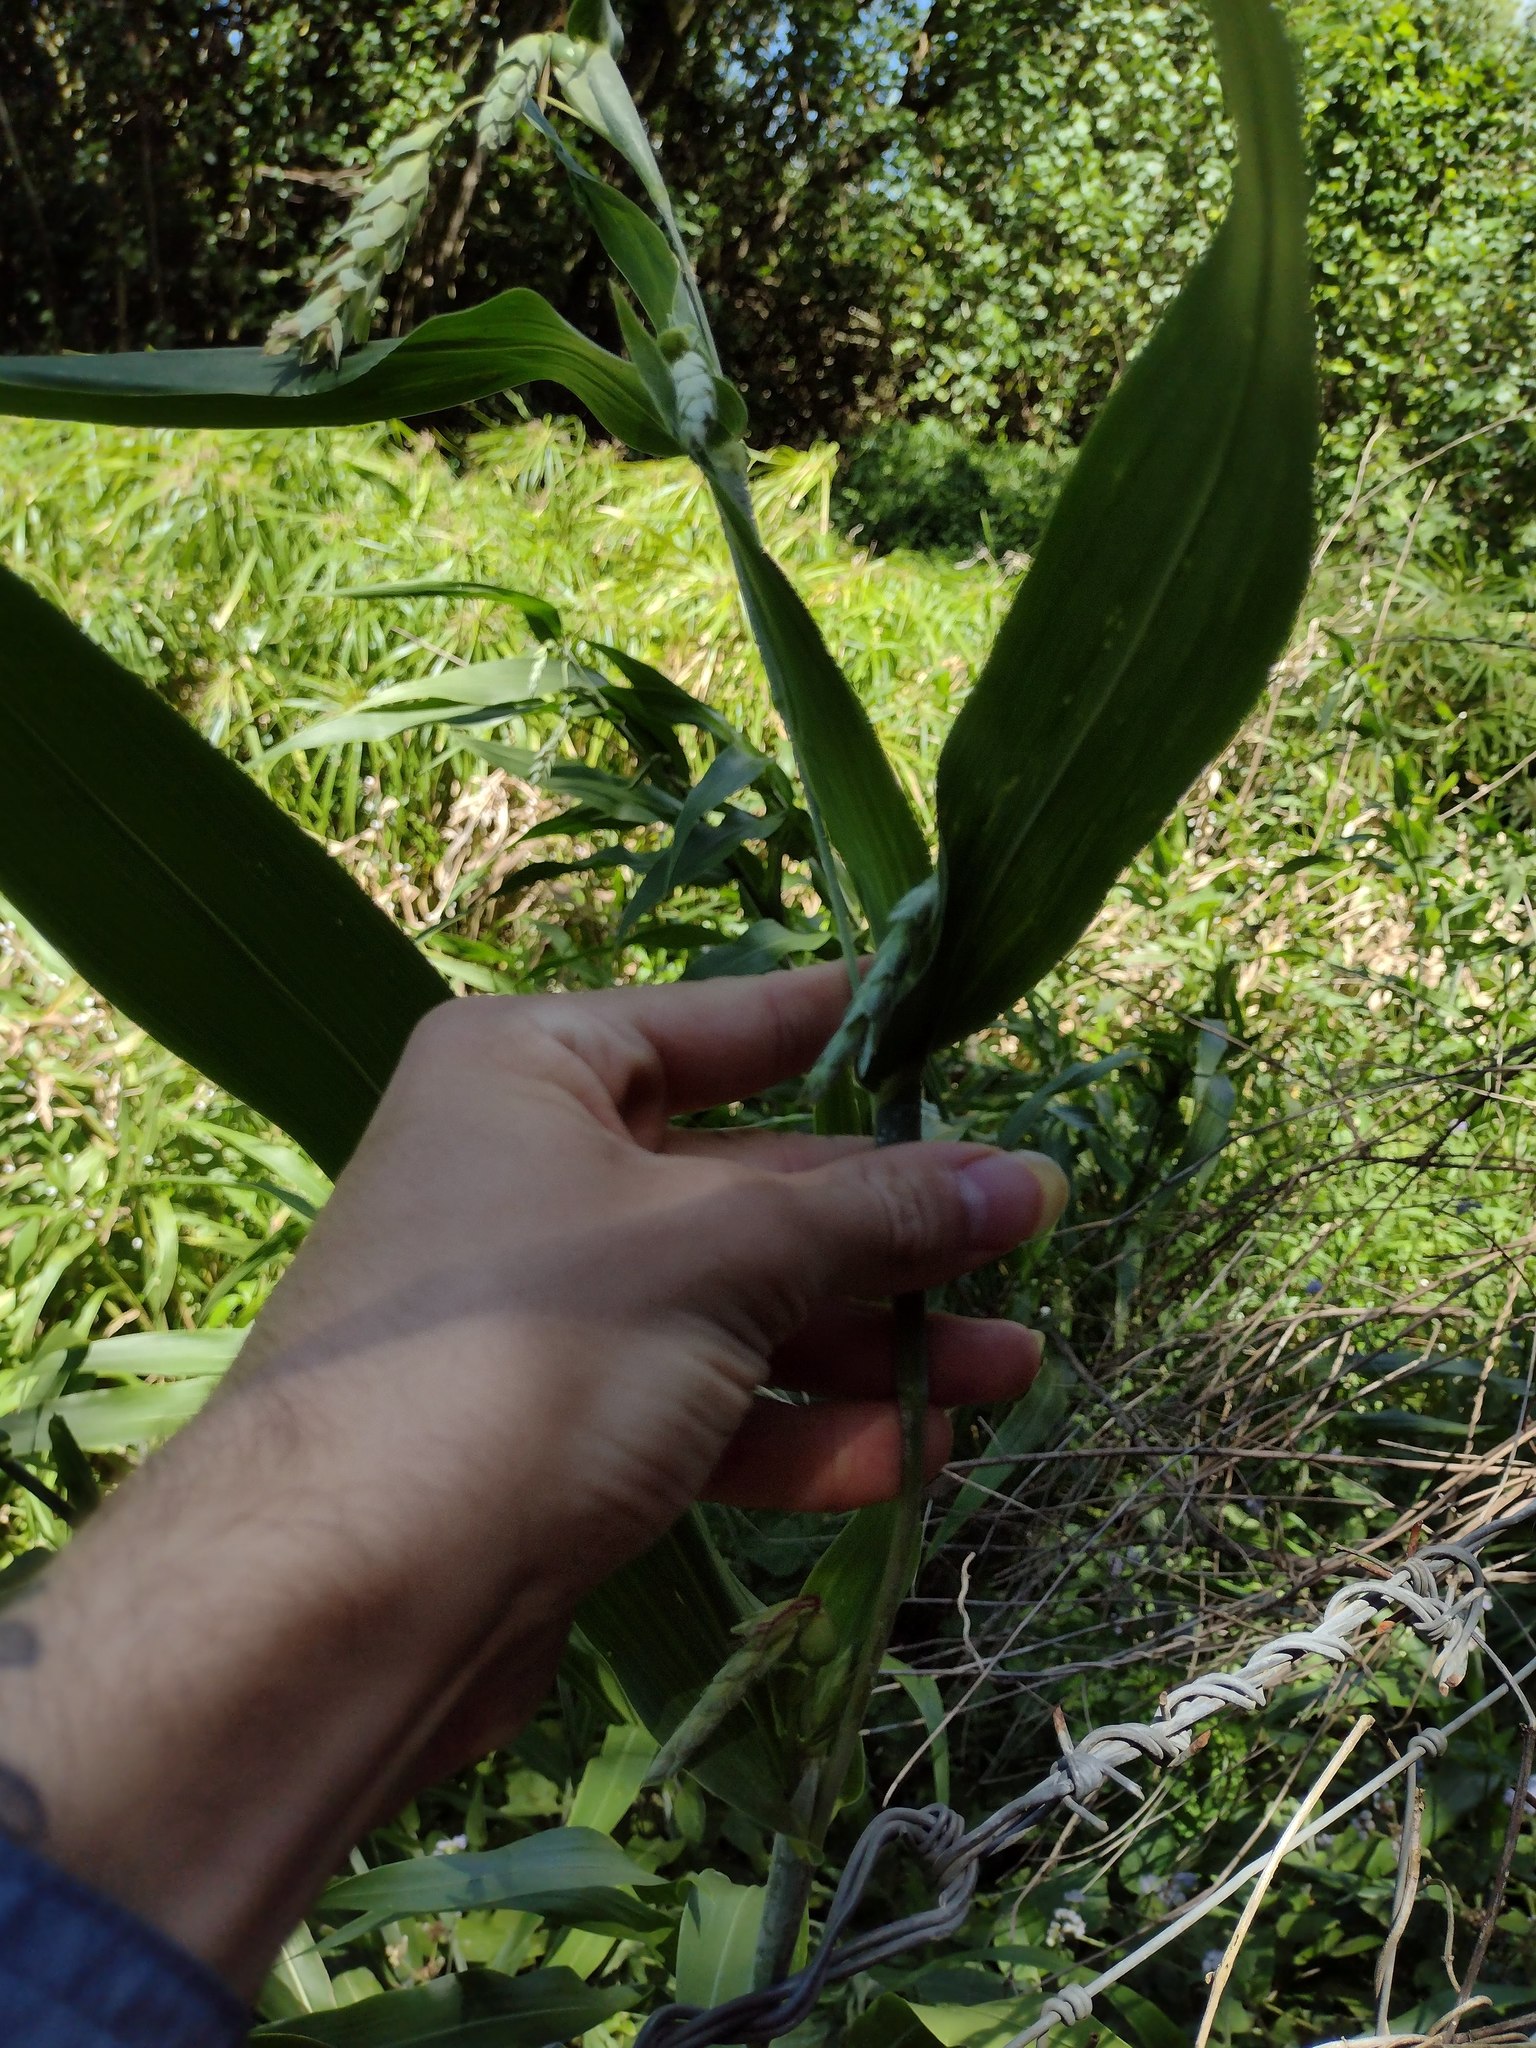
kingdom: Plantae
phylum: Tracheophyta
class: Liliopsida
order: Poales
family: Poaceae
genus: Coix
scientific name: Coix lacryma-jobi
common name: Job's tears
